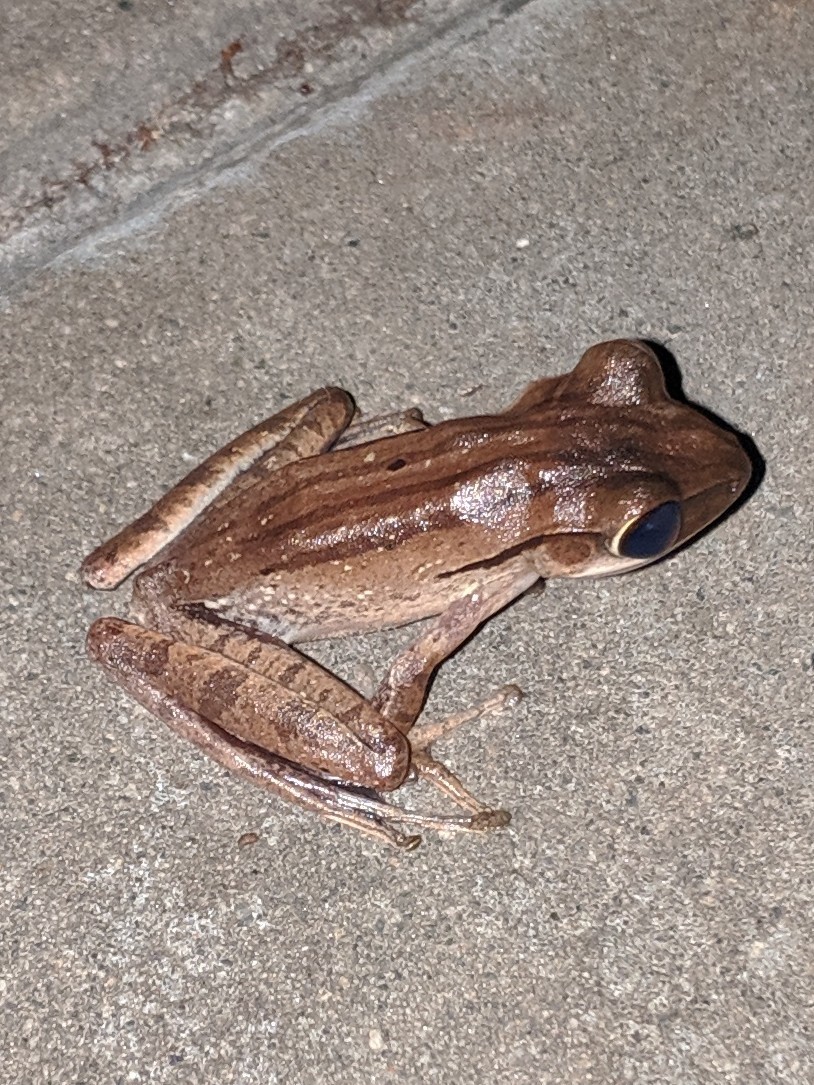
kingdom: Animalia
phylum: Chordata
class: Amphibia
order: Anura
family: Rhacophoridae
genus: Polypedates
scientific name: Polypedates leucomystax
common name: Common tree frog/four-lined tree frog
